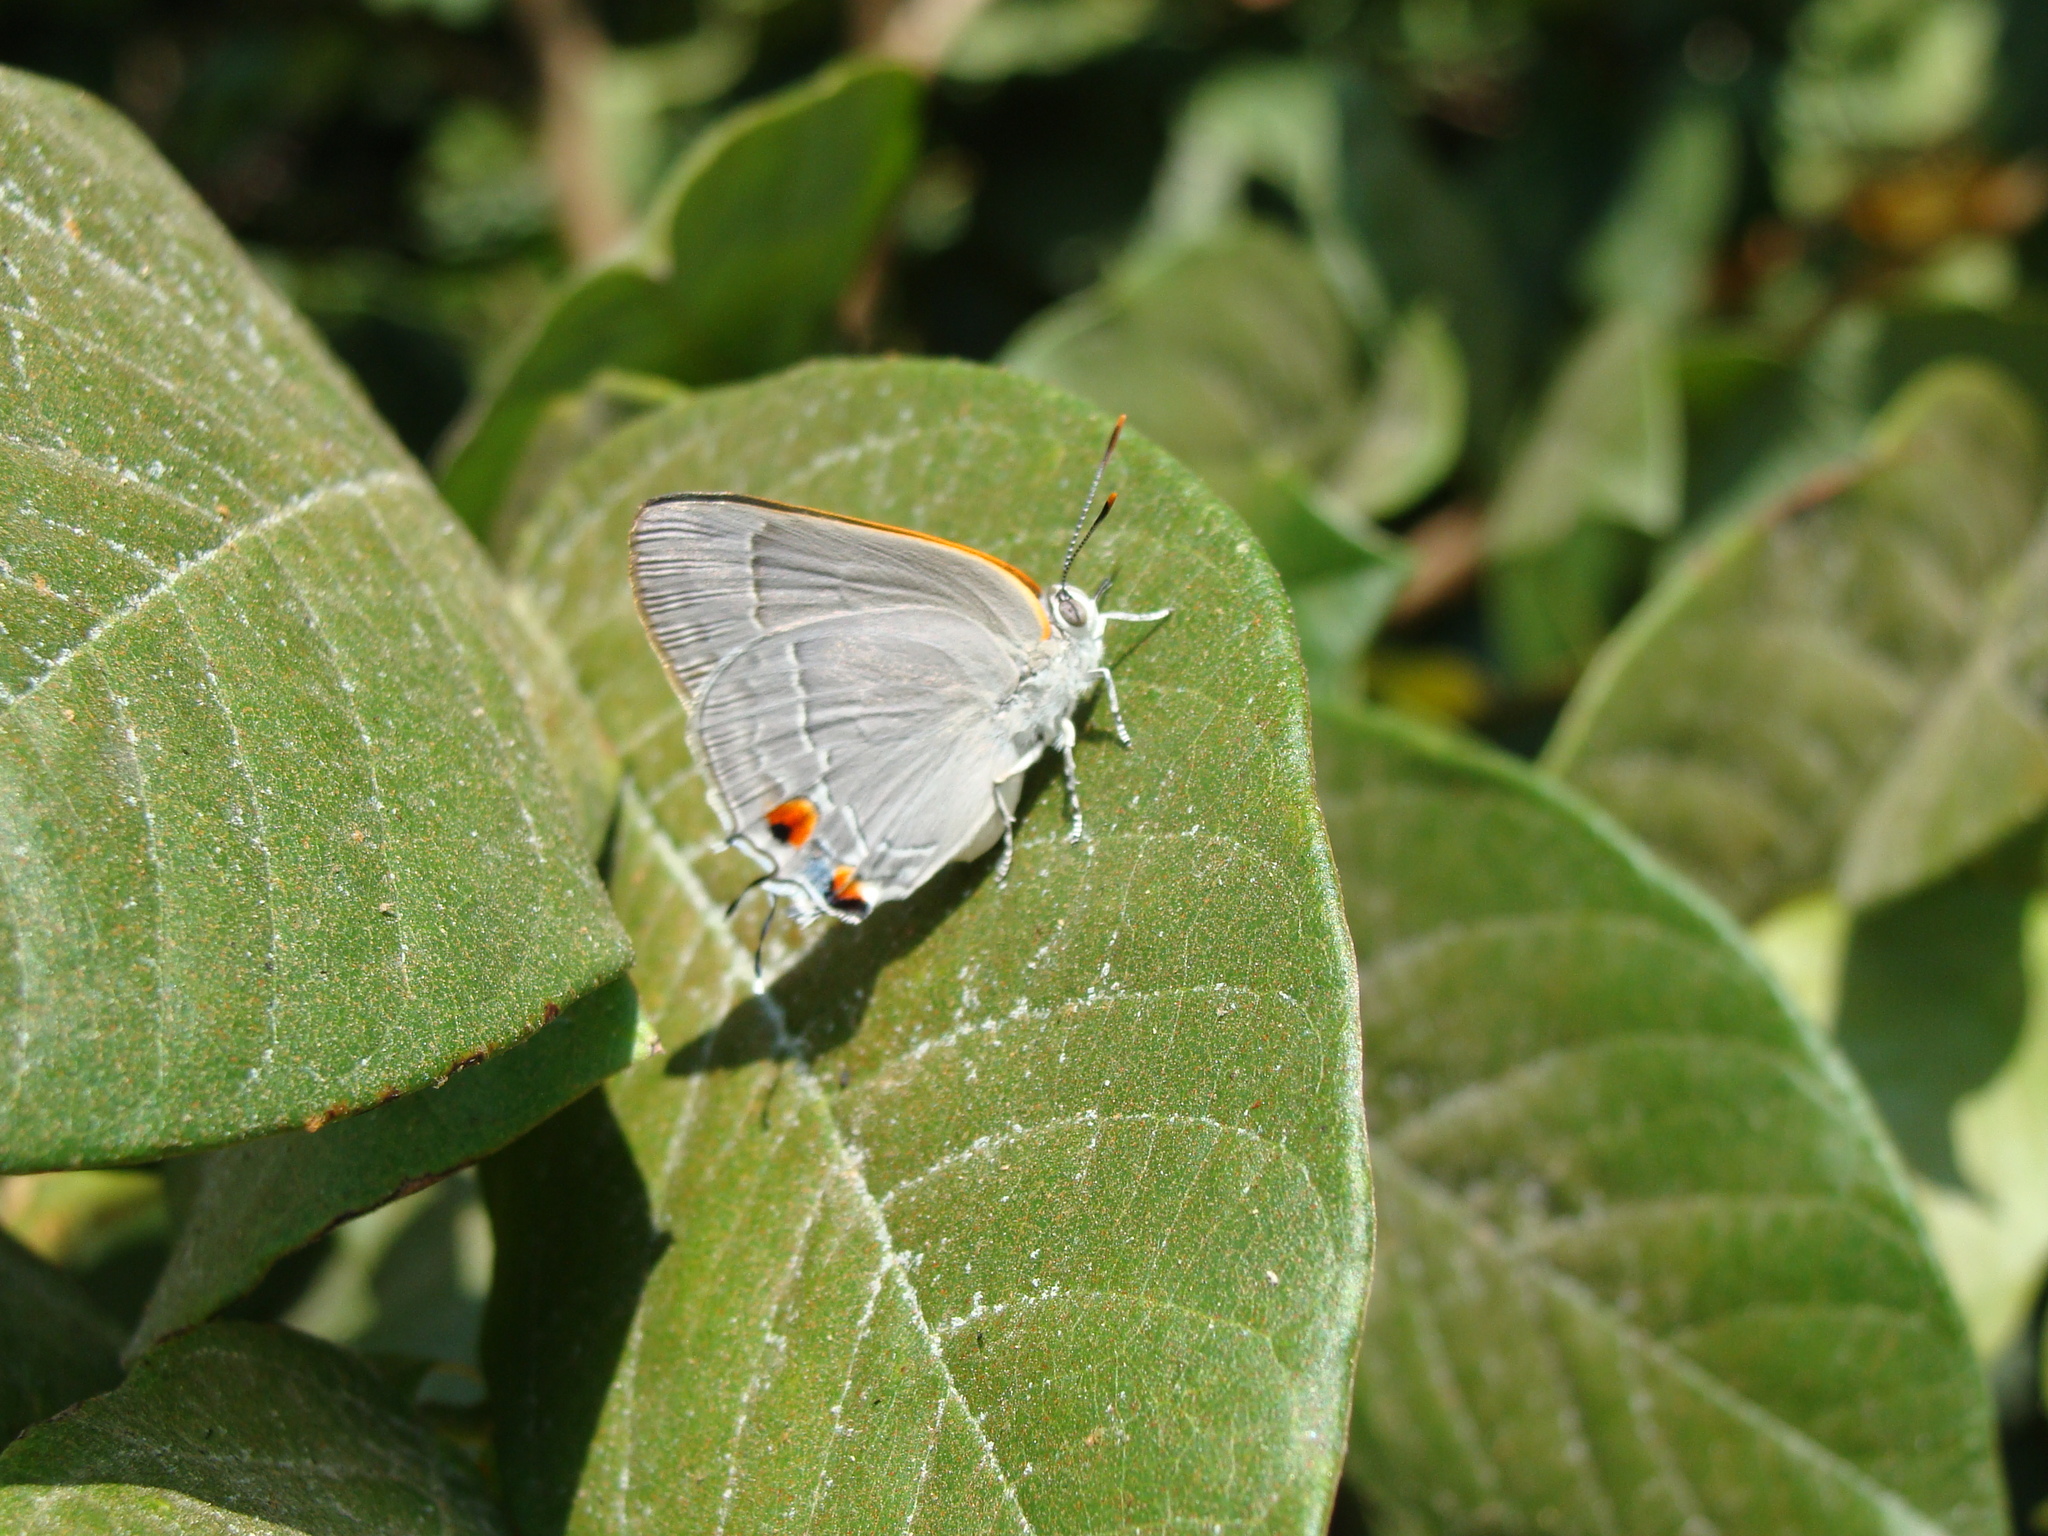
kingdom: Animalia
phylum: Arthropoda
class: Insecta
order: Lepidoptera
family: Lycaenidae
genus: Thecla
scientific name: Thecla marius
